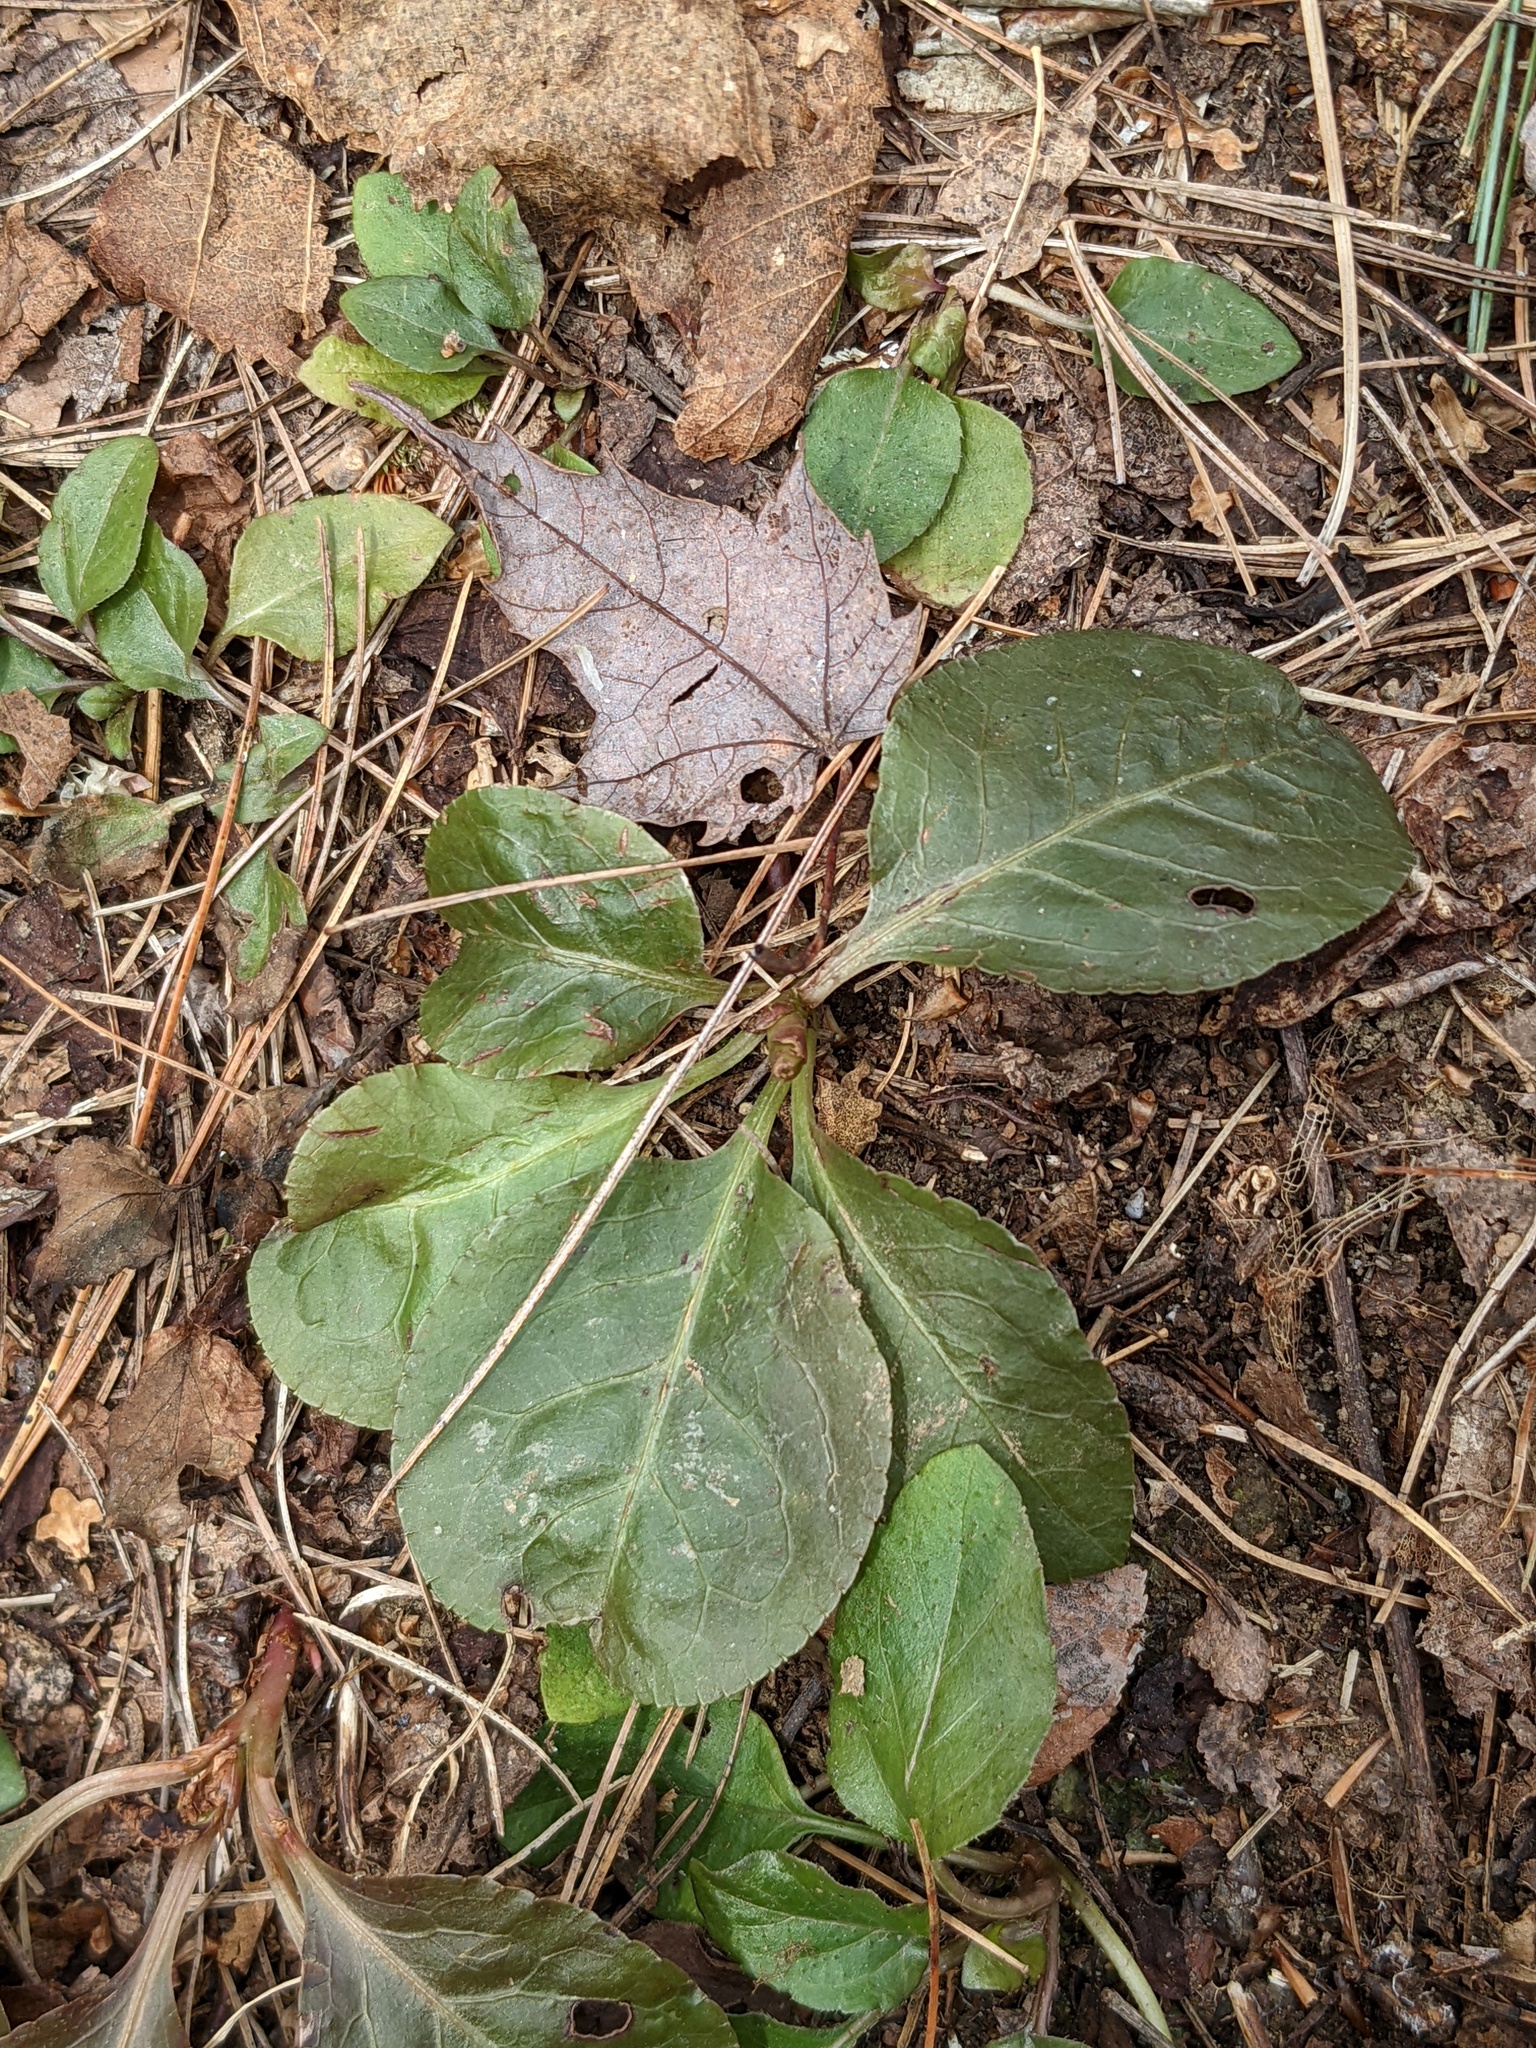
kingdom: Plantae
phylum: Tracheophyta
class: Magnoliopsida
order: Ericales
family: Ericaceae
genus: Pyrola
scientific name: Pyrola elliptica
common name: Shinleaf
